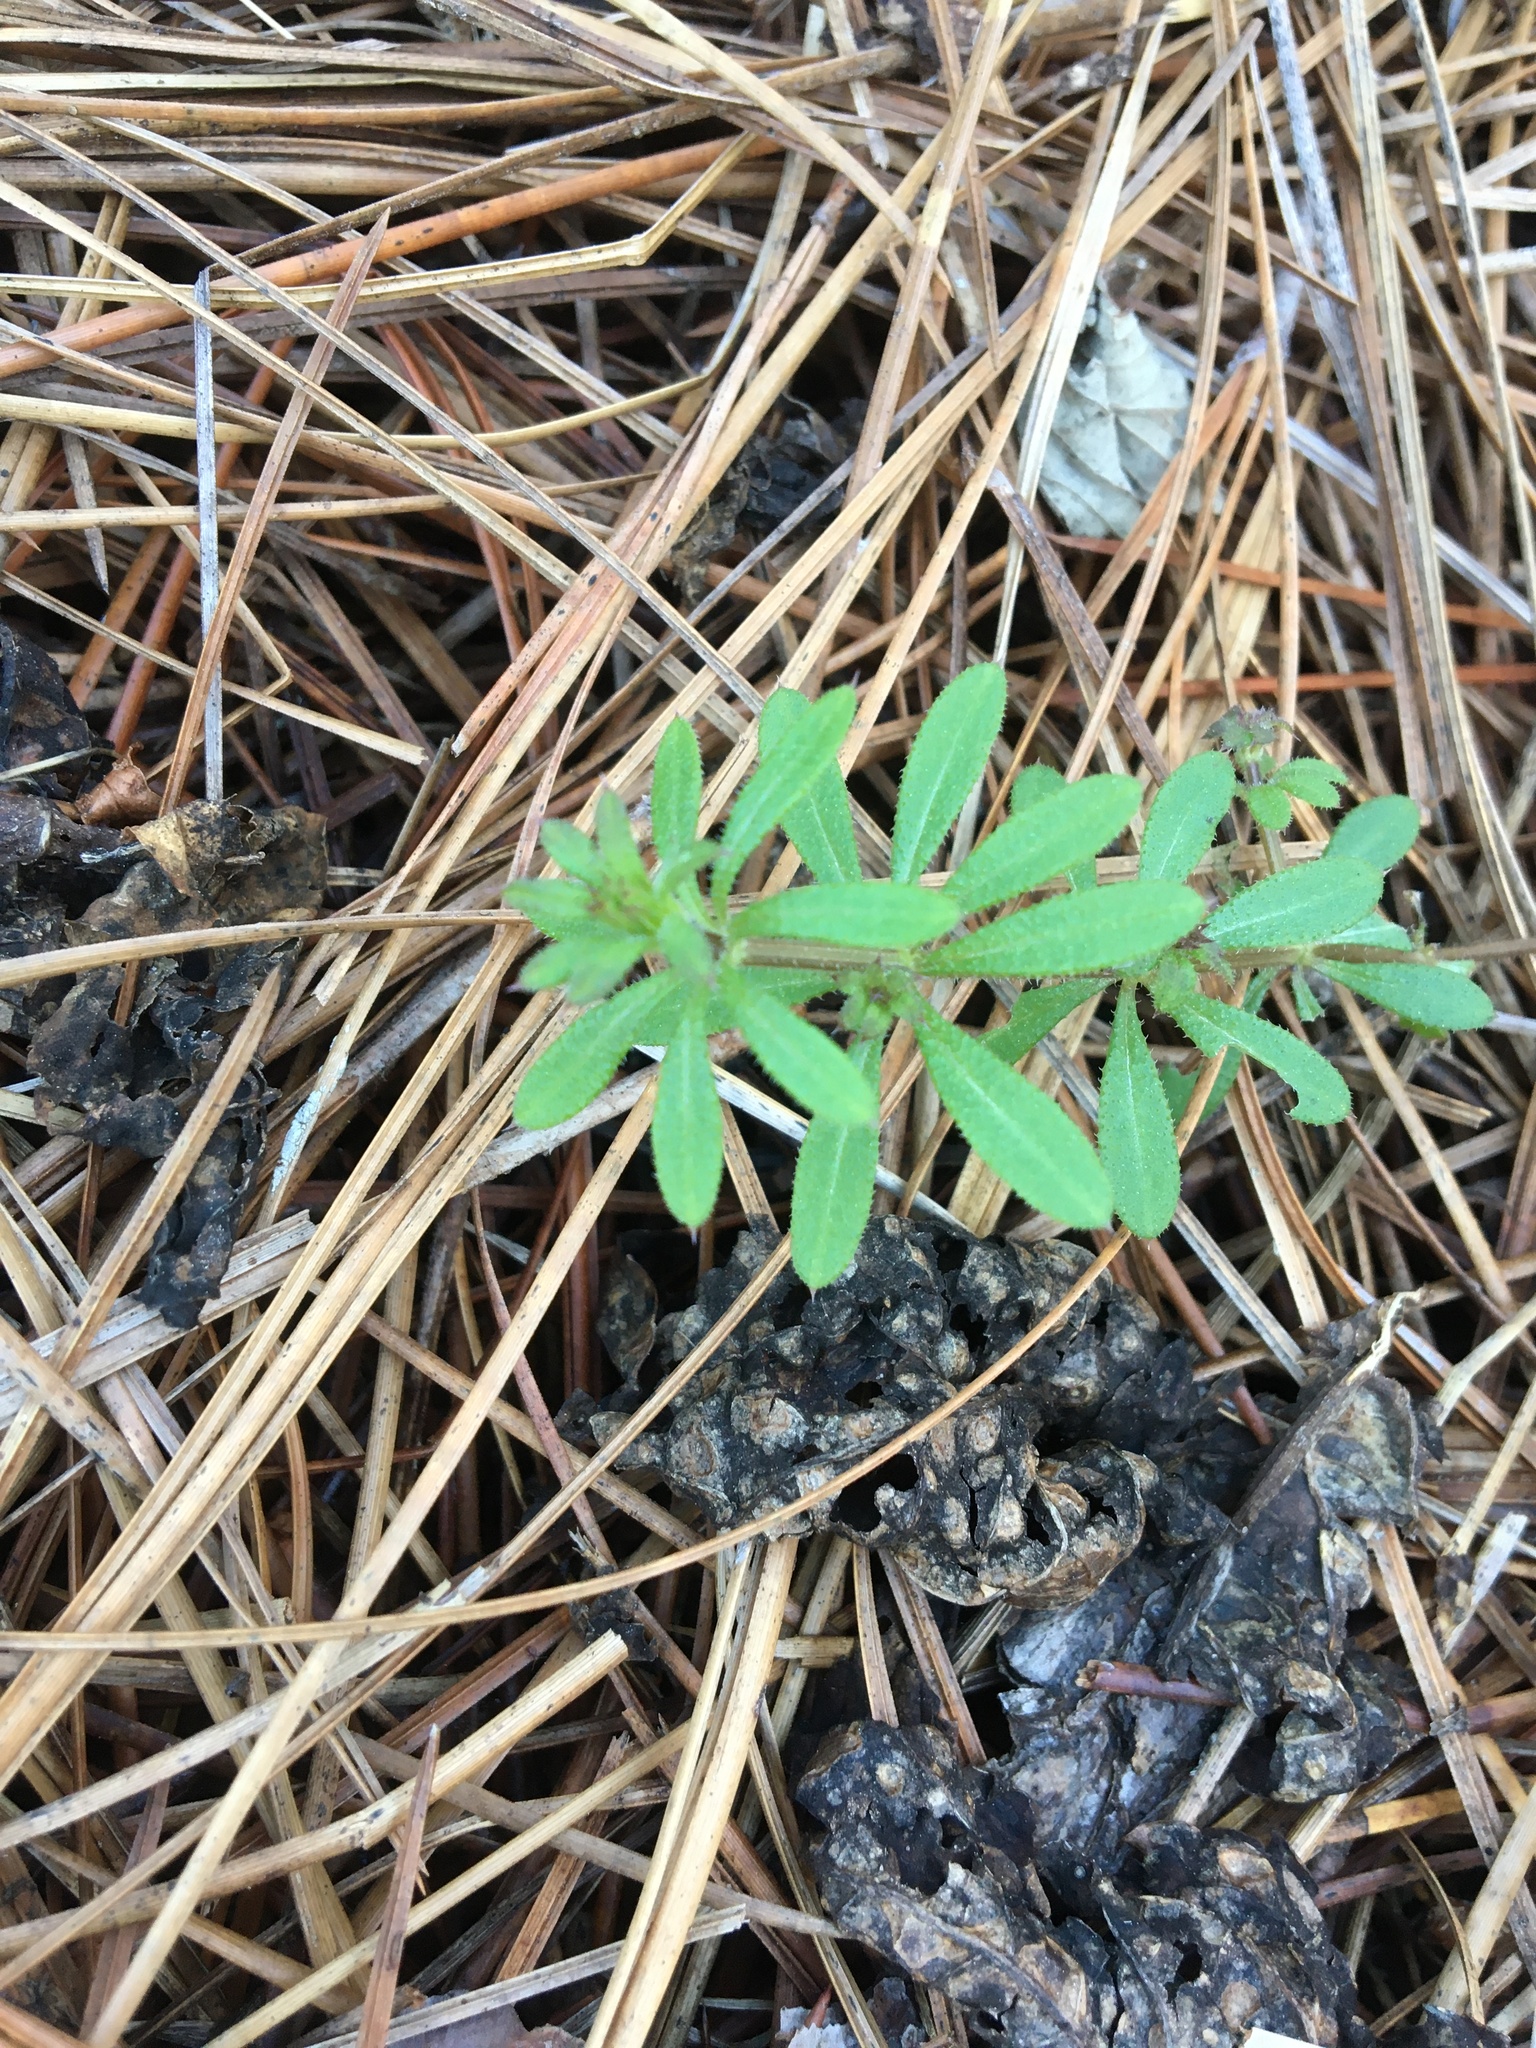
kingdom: Plantae
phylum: Tracheophyta
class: Magnoliopsida
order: Gentianales
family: Rubiaceae
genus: Galium
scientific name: Galium aparine
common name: Cleavers
